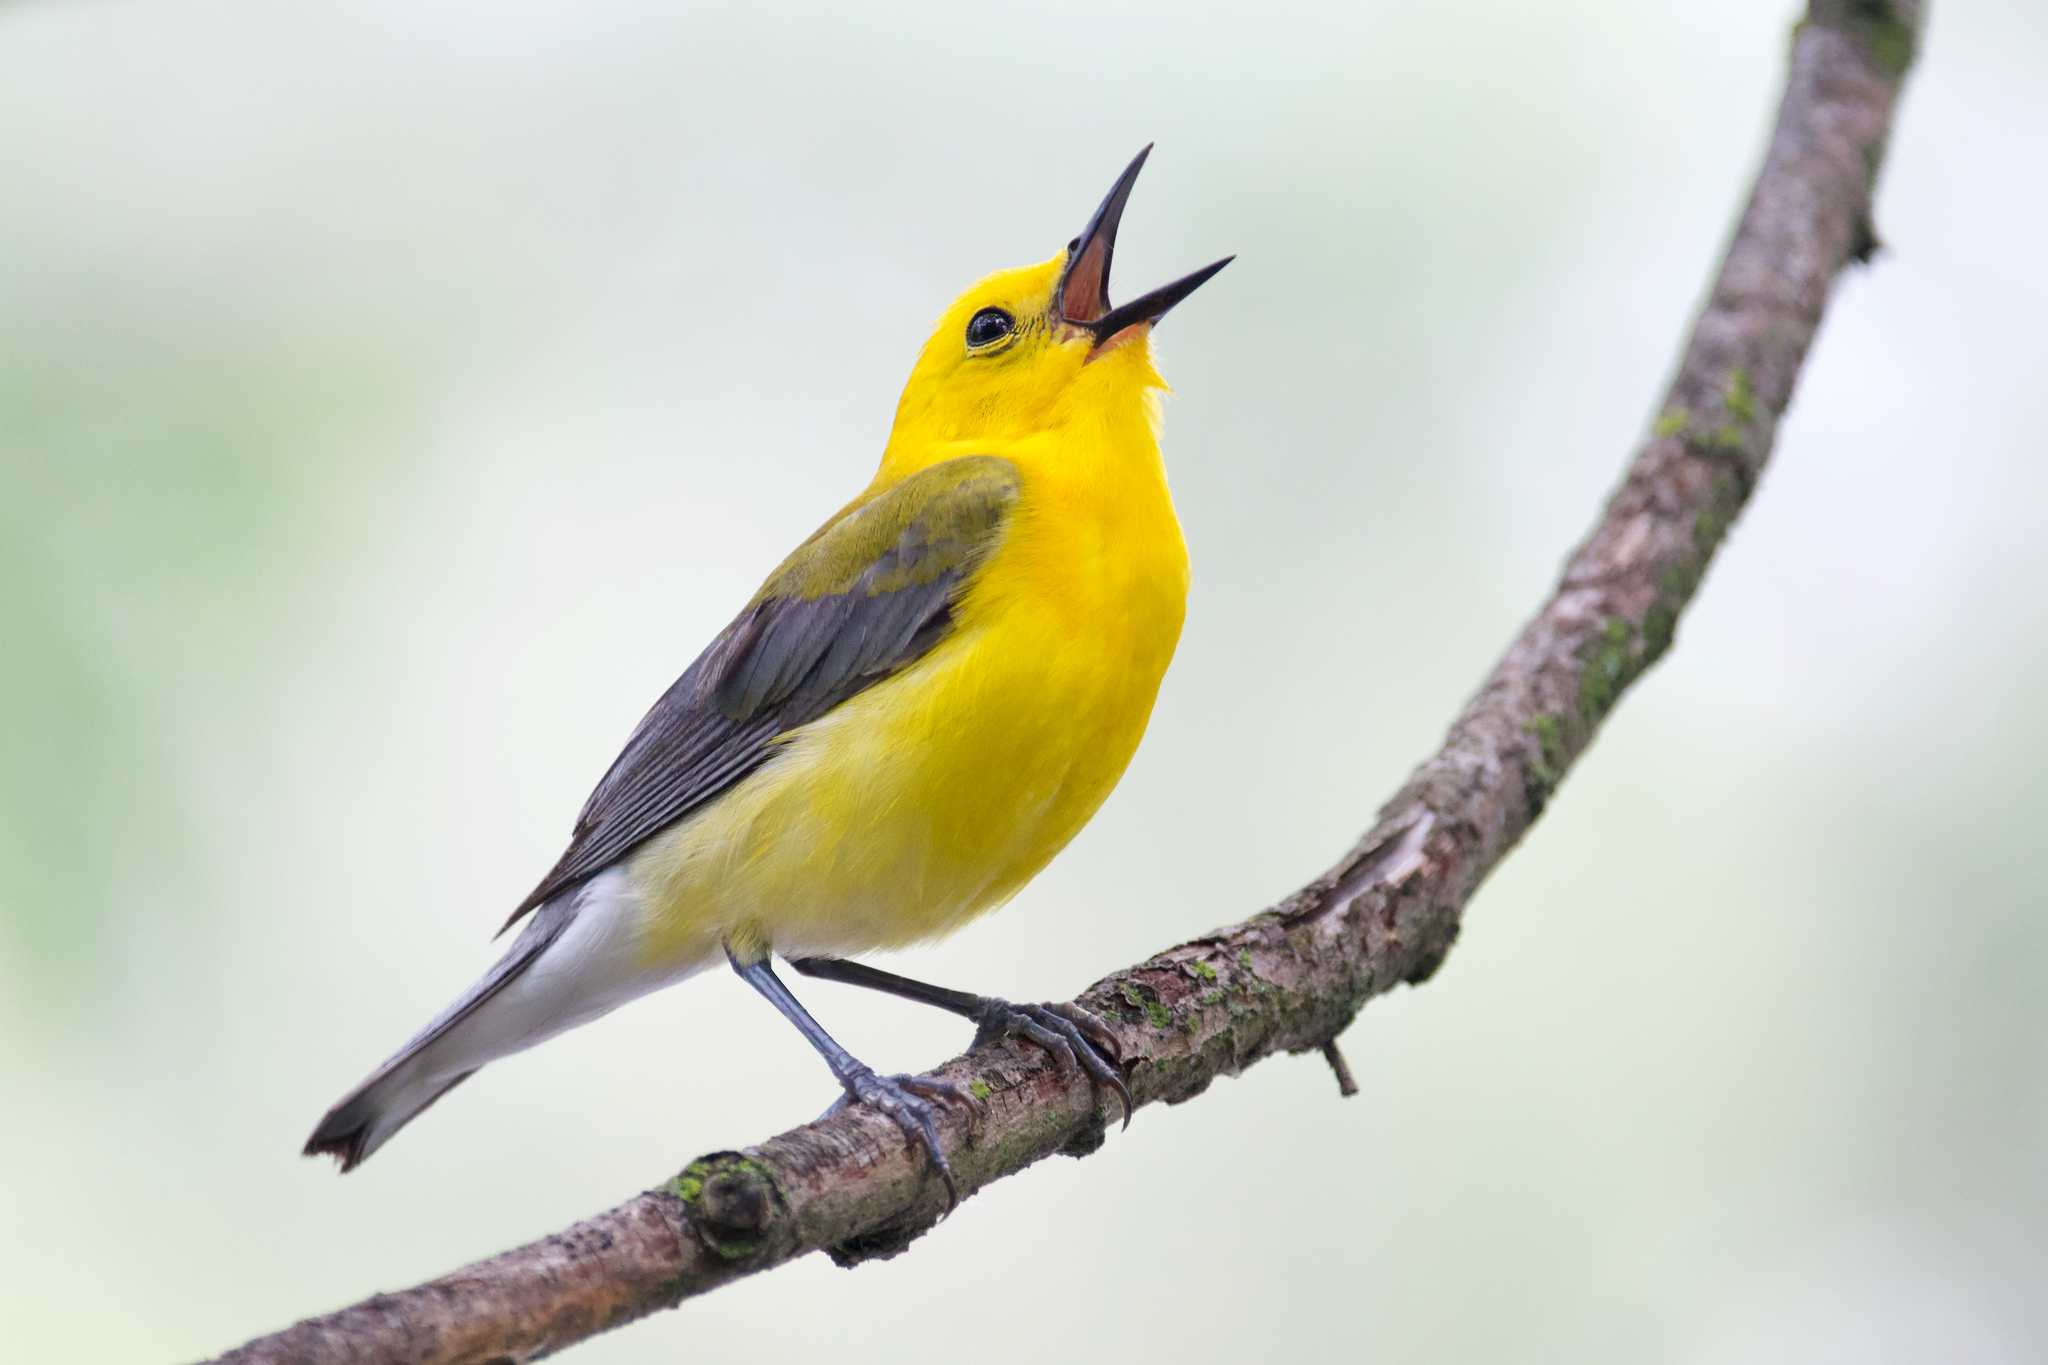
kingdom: Animalia
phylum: Chordata
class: Aves
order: Passeriformes
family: Parulidae
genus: Protonotaria
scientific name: Protonotaria citrea
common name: Prothonotary warbler
